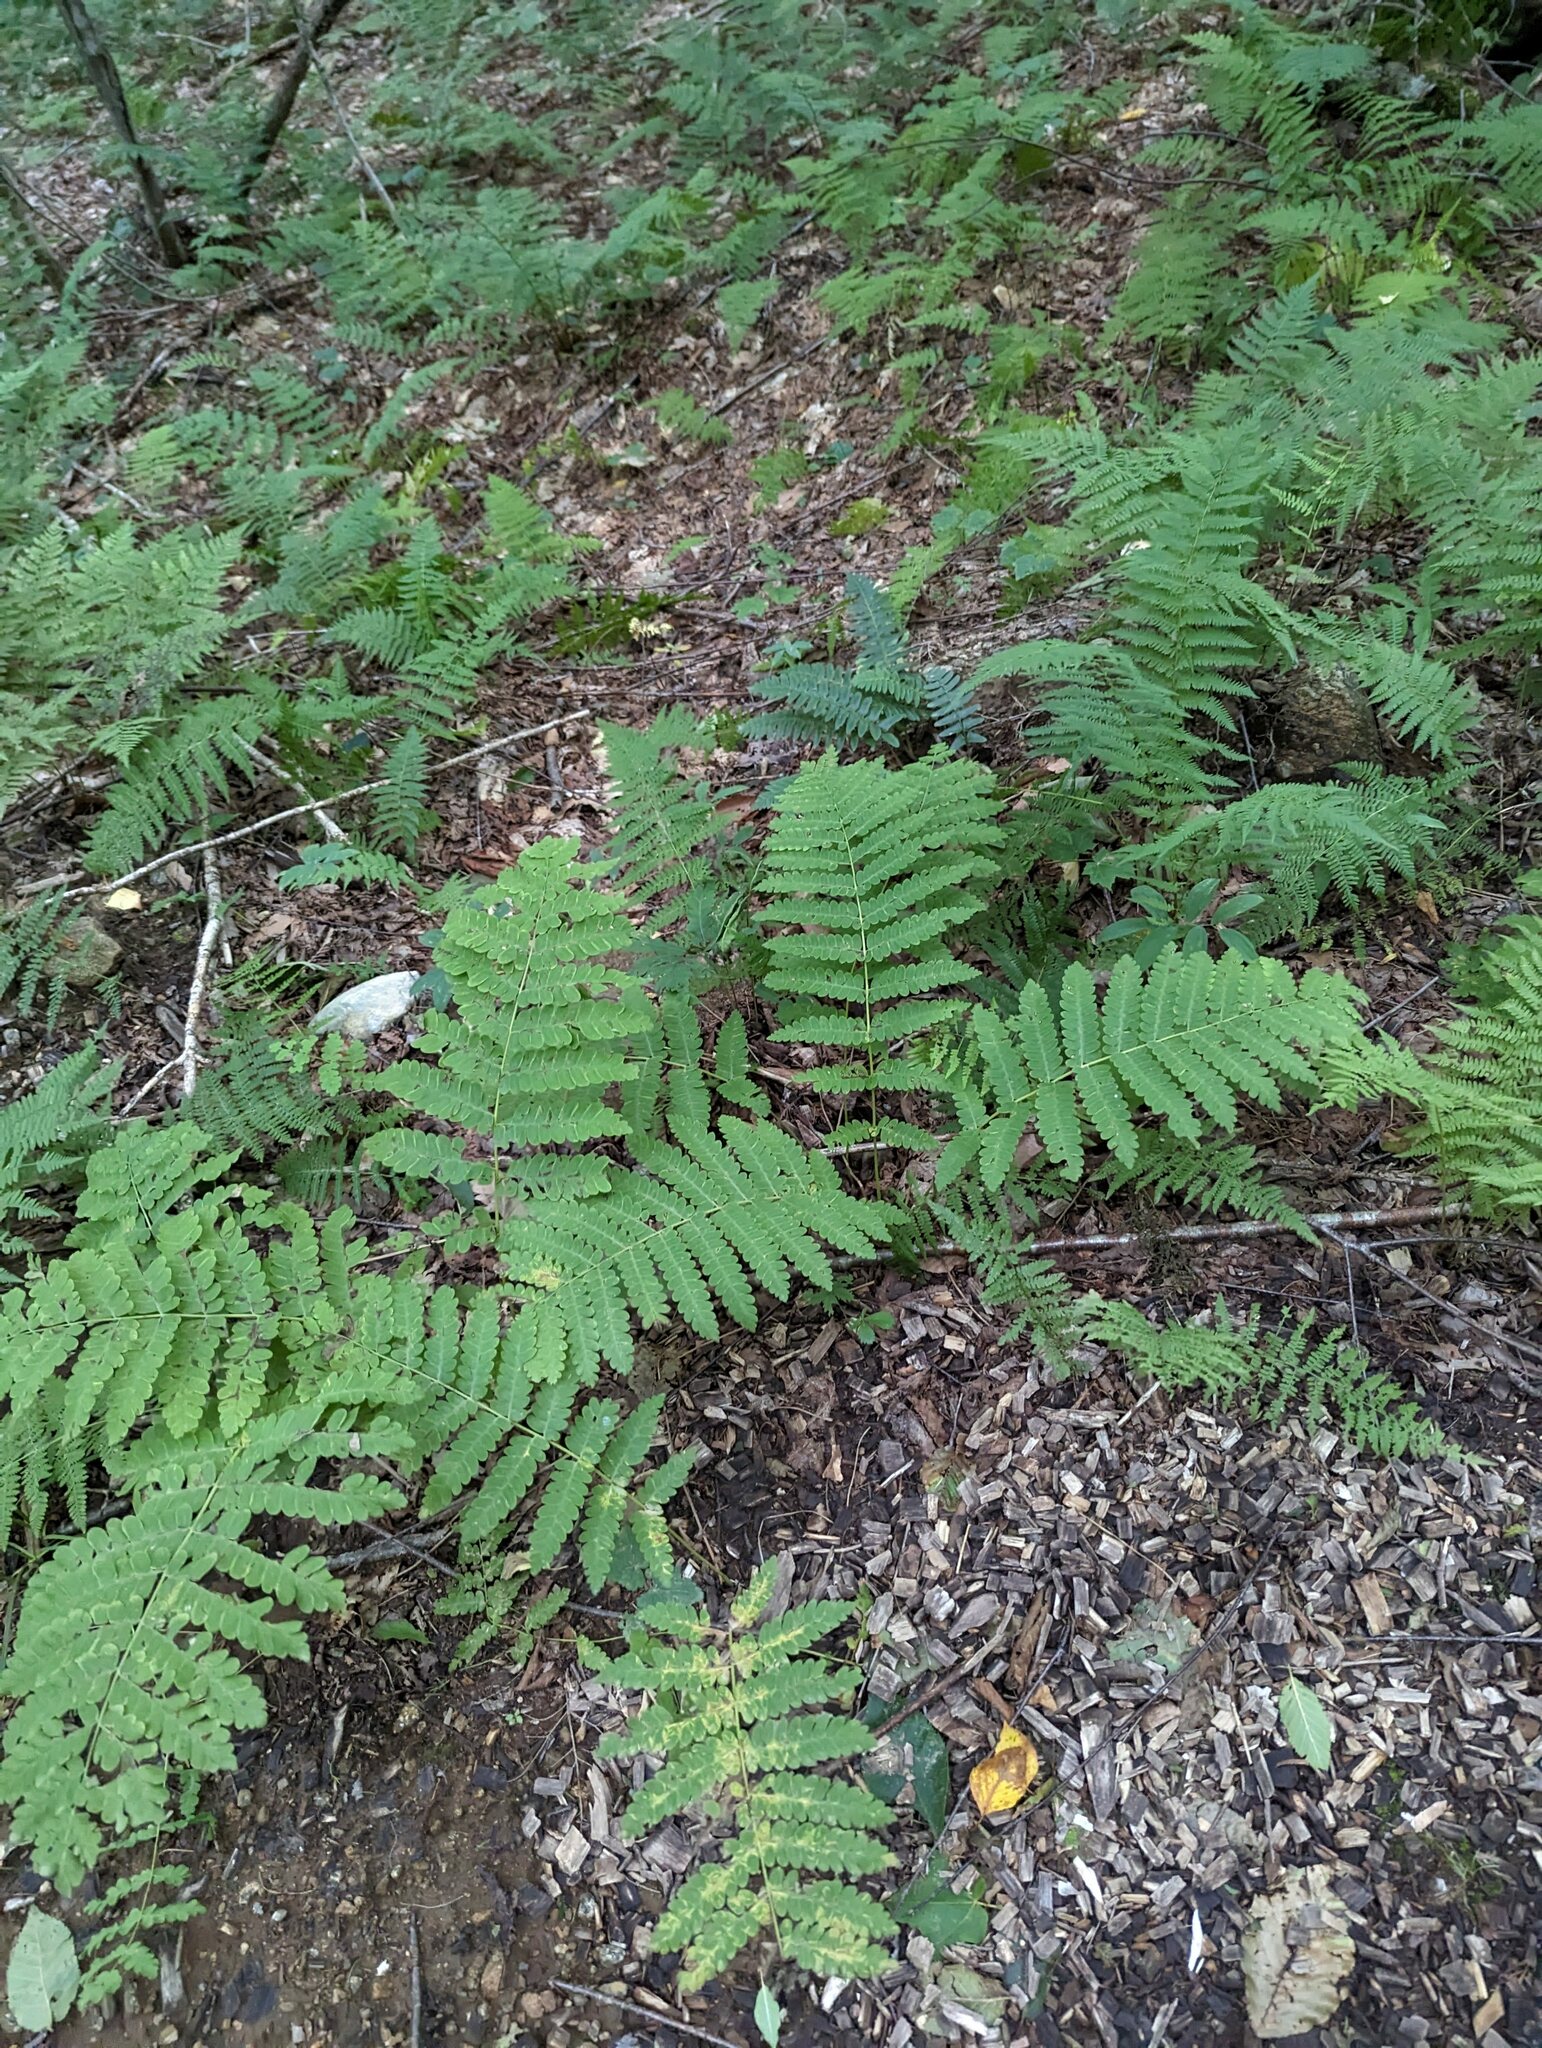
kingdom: Plantae
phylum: Tracheophyta
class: Polypodiopsida
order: Osmundales
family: Osmundaceae
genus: Claytosmunda
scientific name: Claytosmunda claytoniana
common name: Clayton's fern
